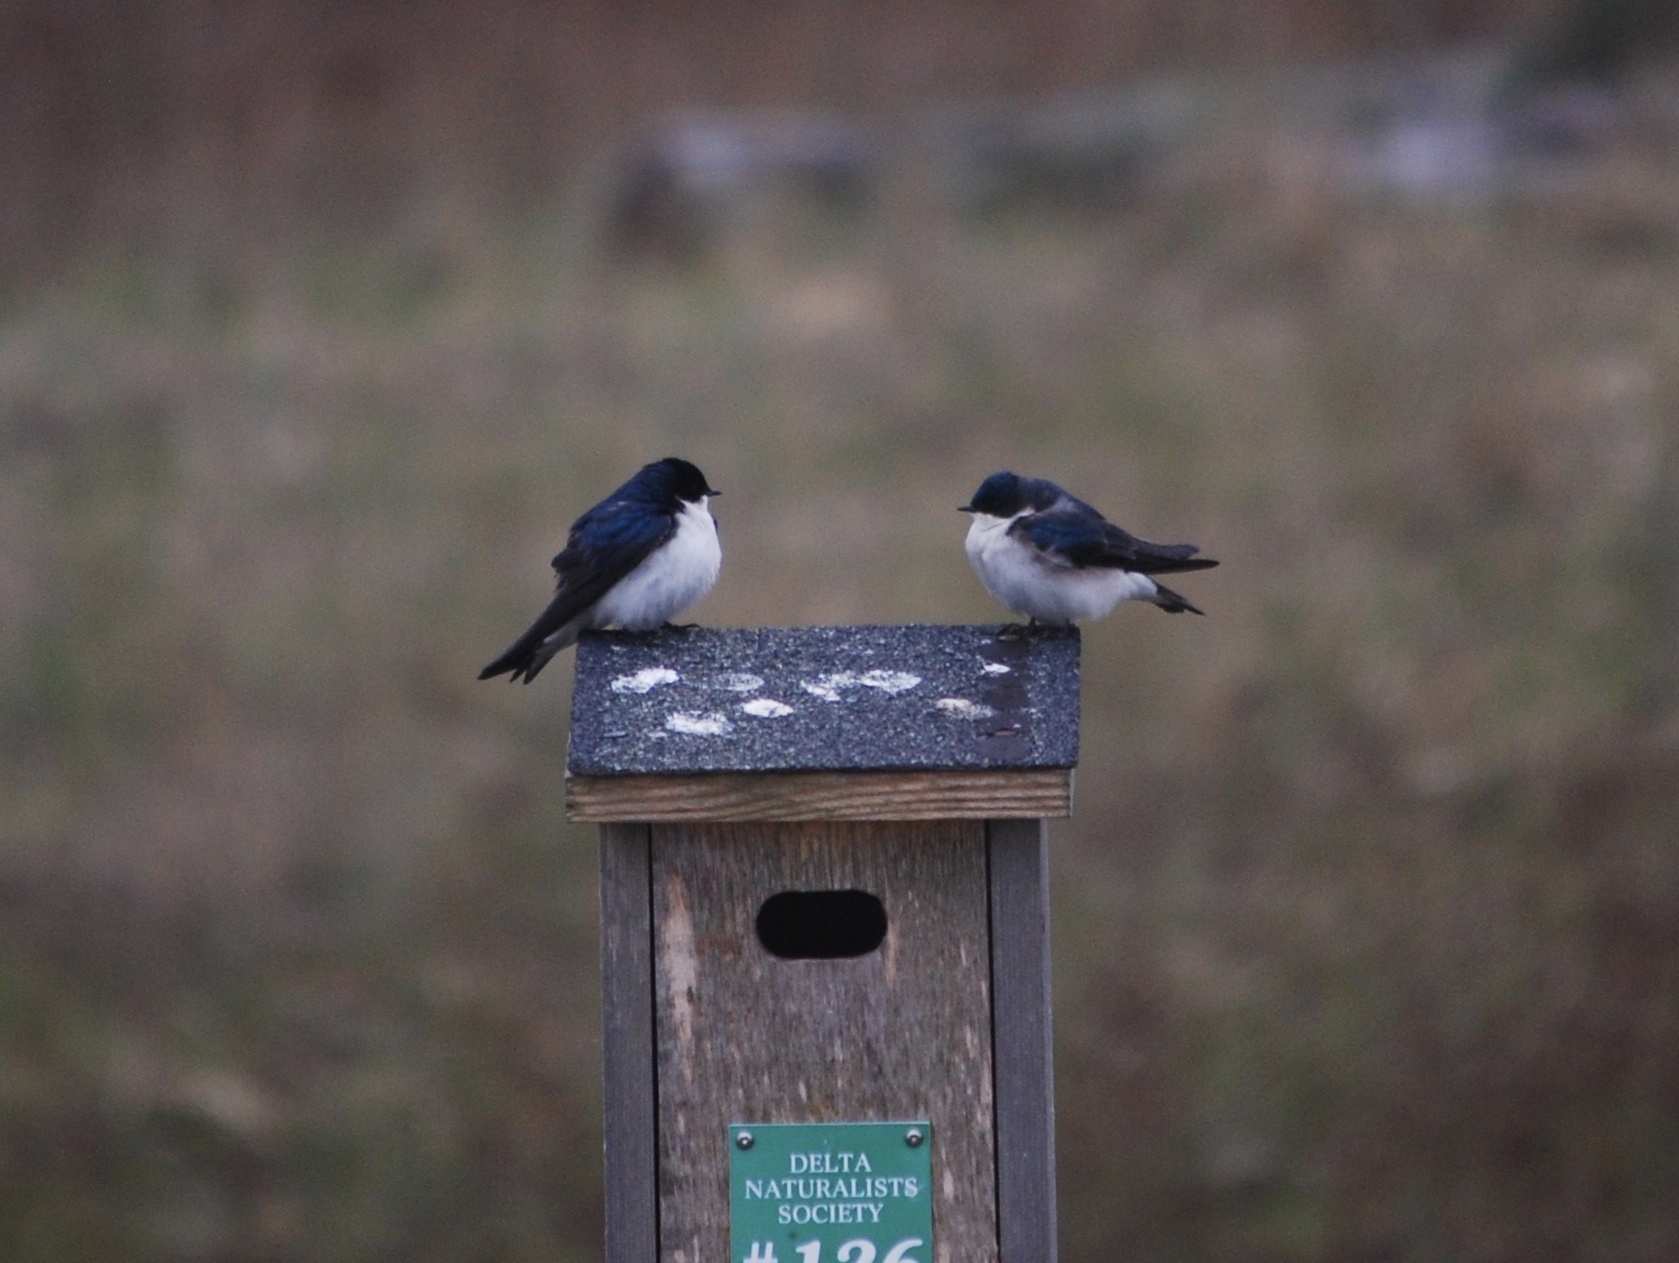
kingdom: Animalia
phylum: Chordata
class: Aves
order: Passeriformes
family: Hirundinidae
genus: Tachycineta
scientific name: Tachycineta bicolor
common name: Tree swallow
